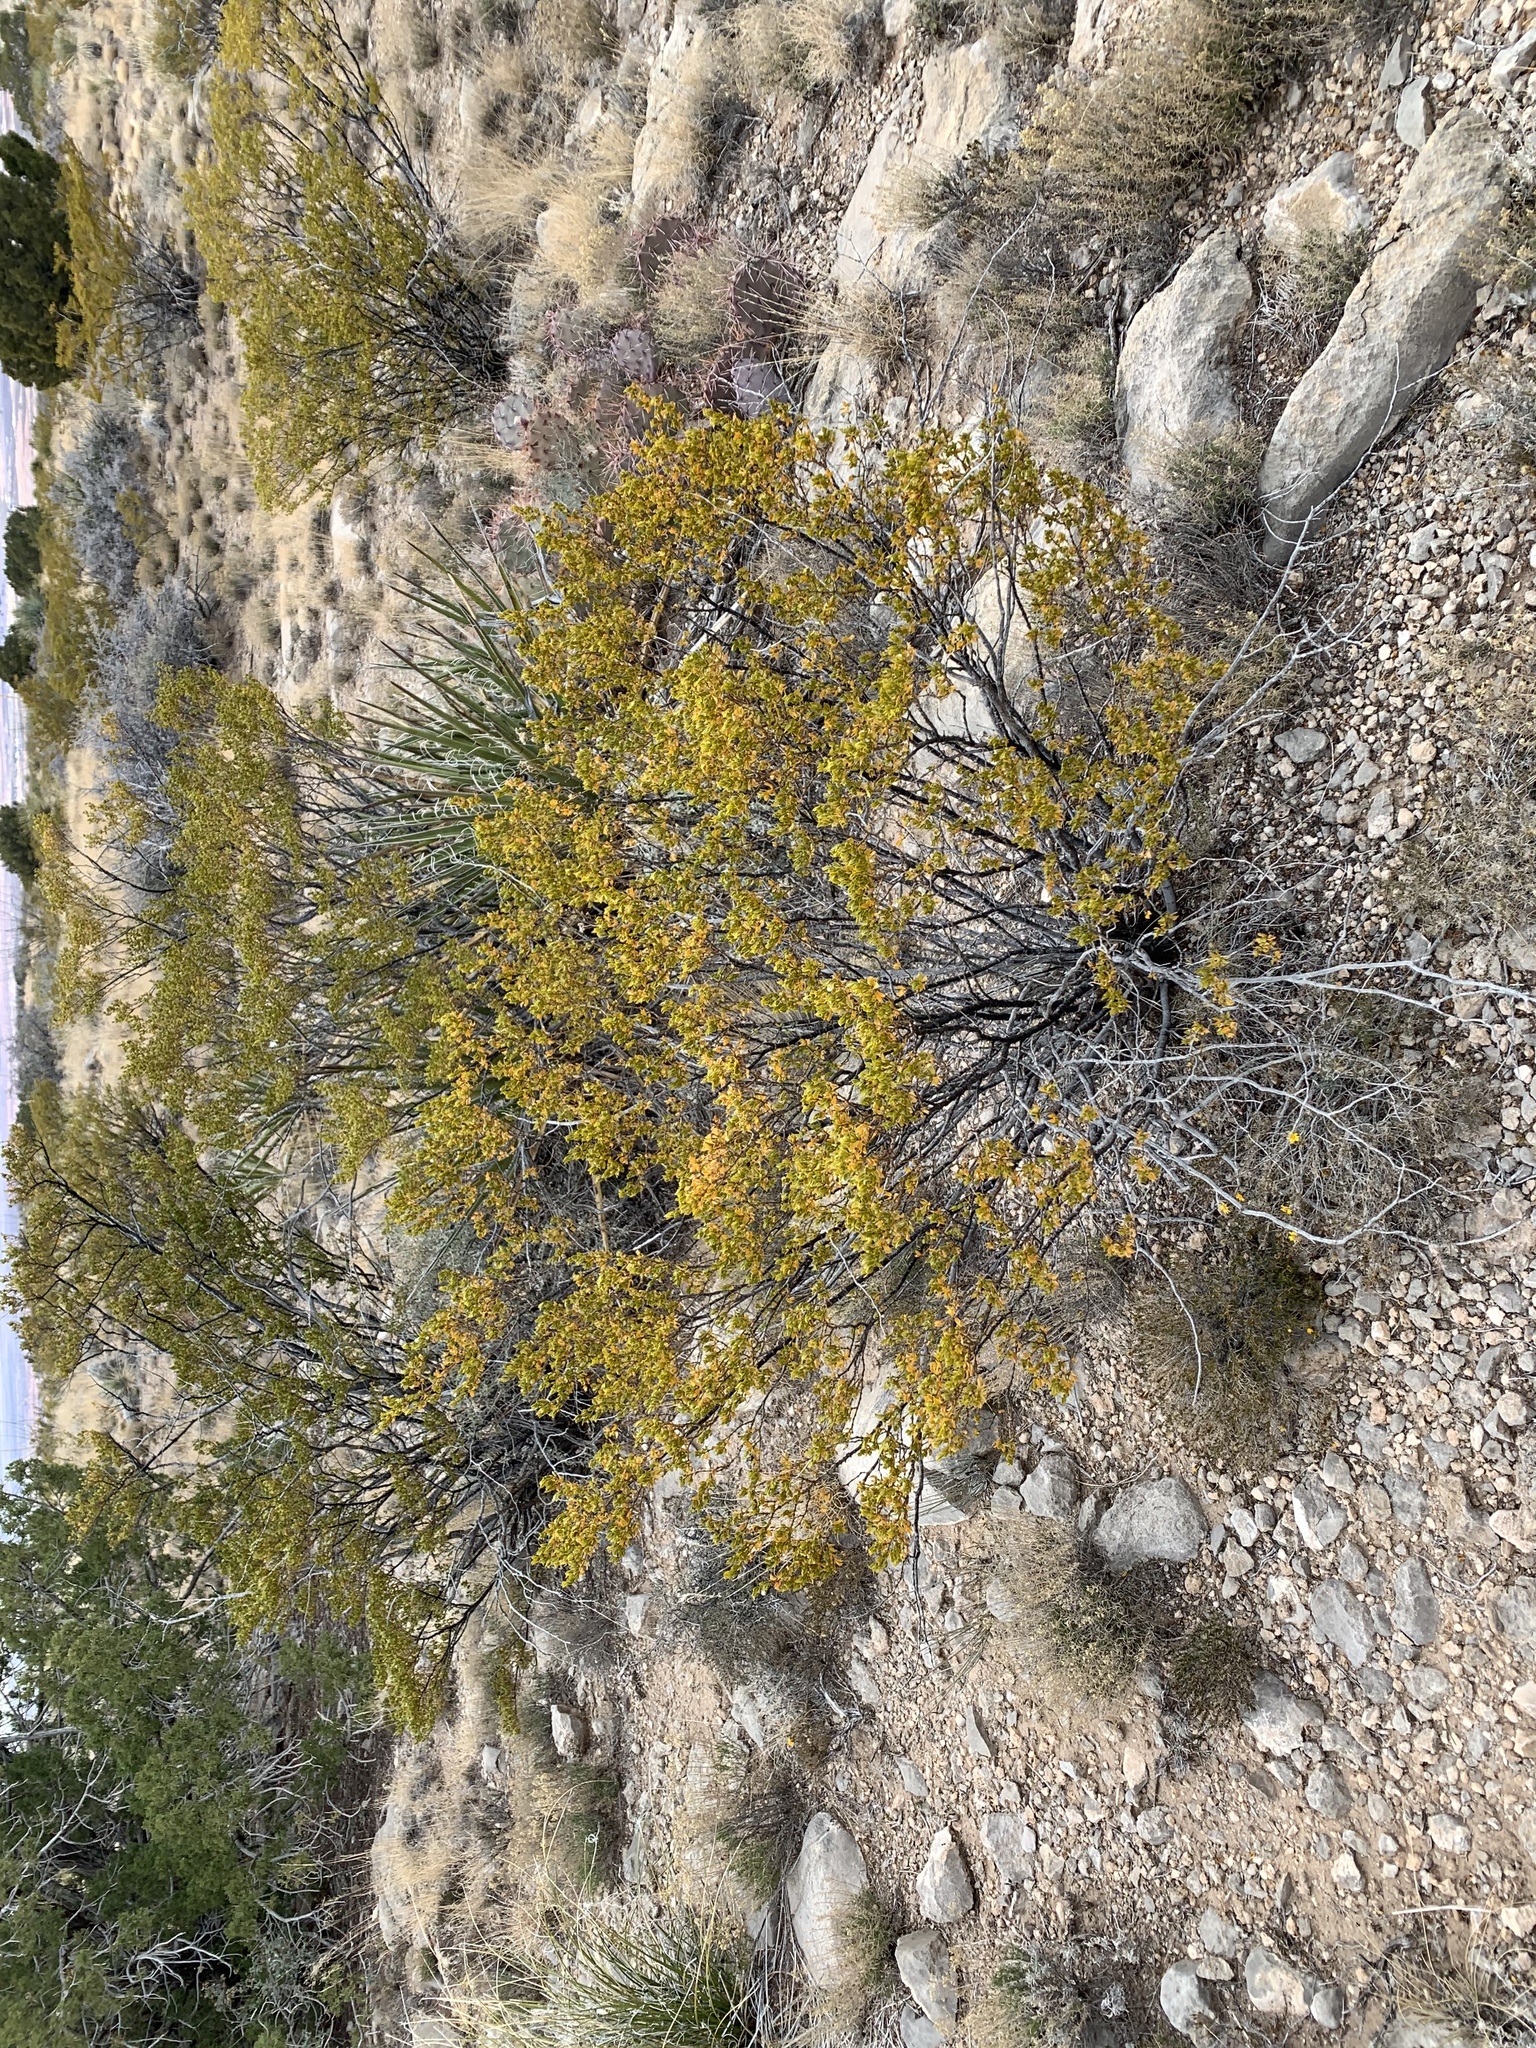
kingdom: Plantae
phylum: Tracheophyta
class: Magnoliopsida
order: Zygophyllales
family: Zygophyllaceae
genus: Larrea
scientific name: Larrea tridentata
